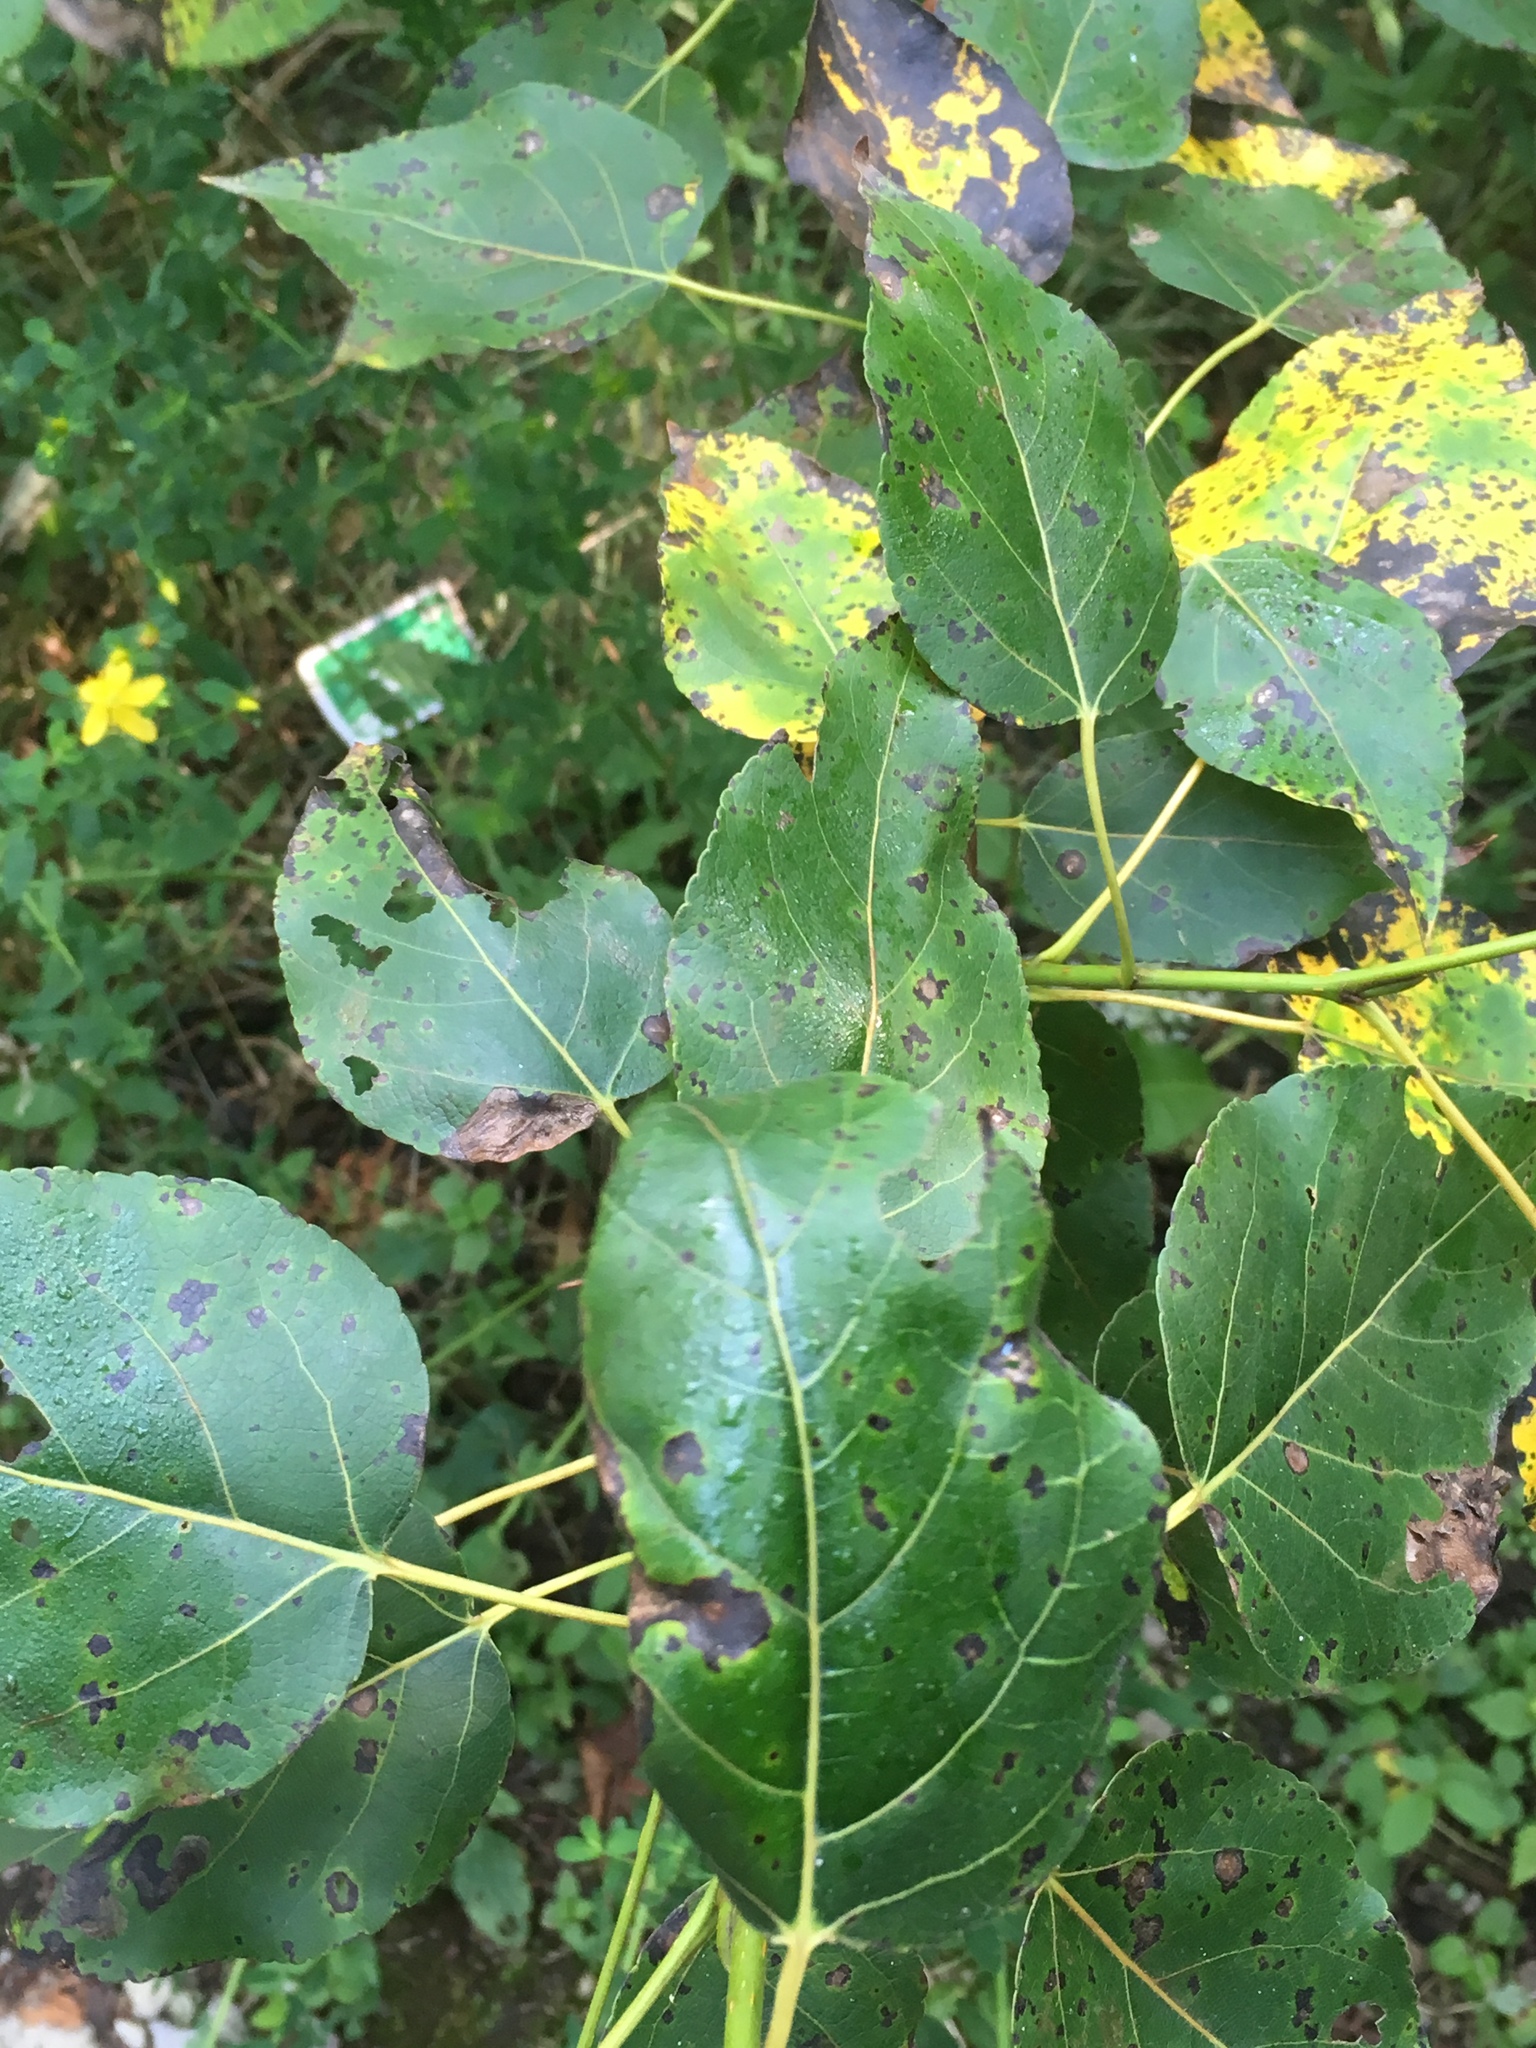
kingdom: Plantae
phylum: Tracheophyta
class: Magnoliopsida
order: Malpighiales
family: Salicaceae
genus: Populus
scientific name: Populus balsamifera
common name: Balsam poplar
